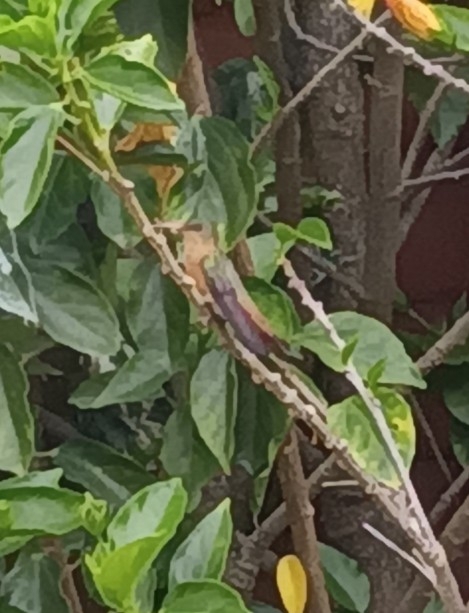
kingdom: Animalia
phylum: Chordata
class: Aves
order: Apodiformes
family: Trochilidae
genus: Amazilia
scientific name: Amazilia rutila
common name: Cinnamon hummingbird
